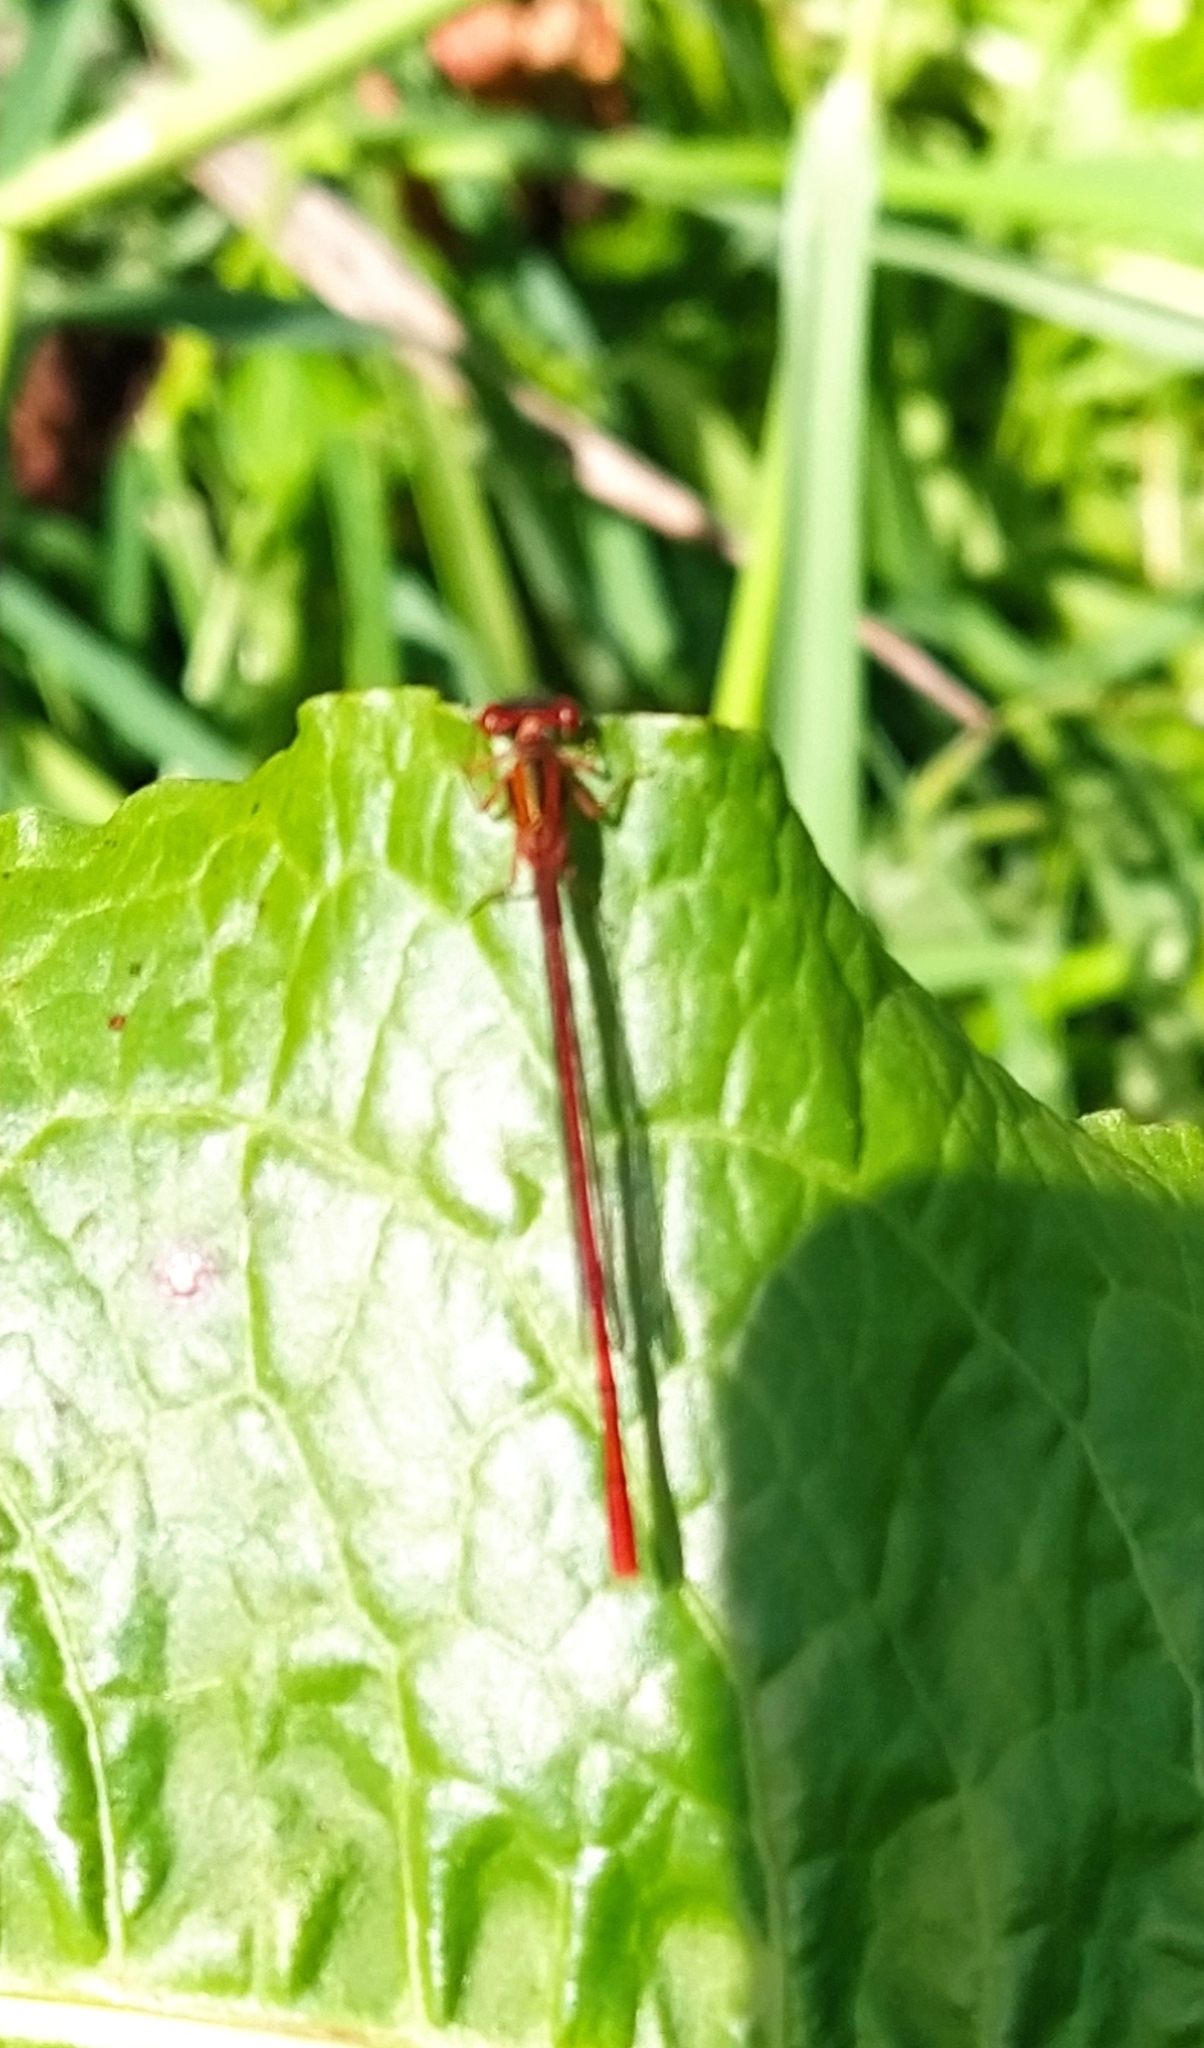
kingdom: Animalia
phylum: Arthropoda
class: Insecta
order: Odonata
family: Coenagrionidae
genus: Xanthocnemis
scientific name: Xanthocnemis zealandica
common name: Common redcoat damselfly
